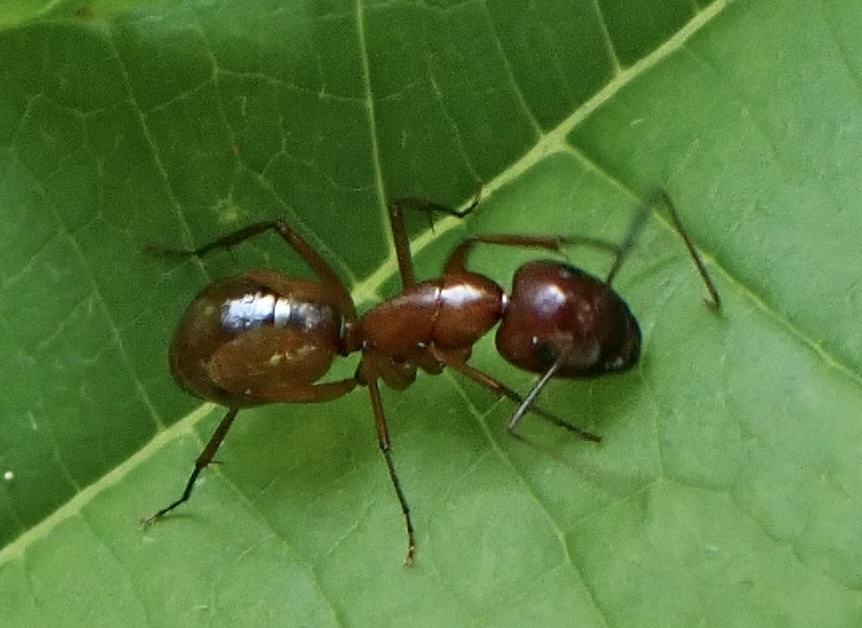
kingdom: Animalia
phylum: Arthropoda
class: Insecta
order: Hymenoptera
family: Formicidae
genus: Camponotus
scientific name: Camponotus castaneus
